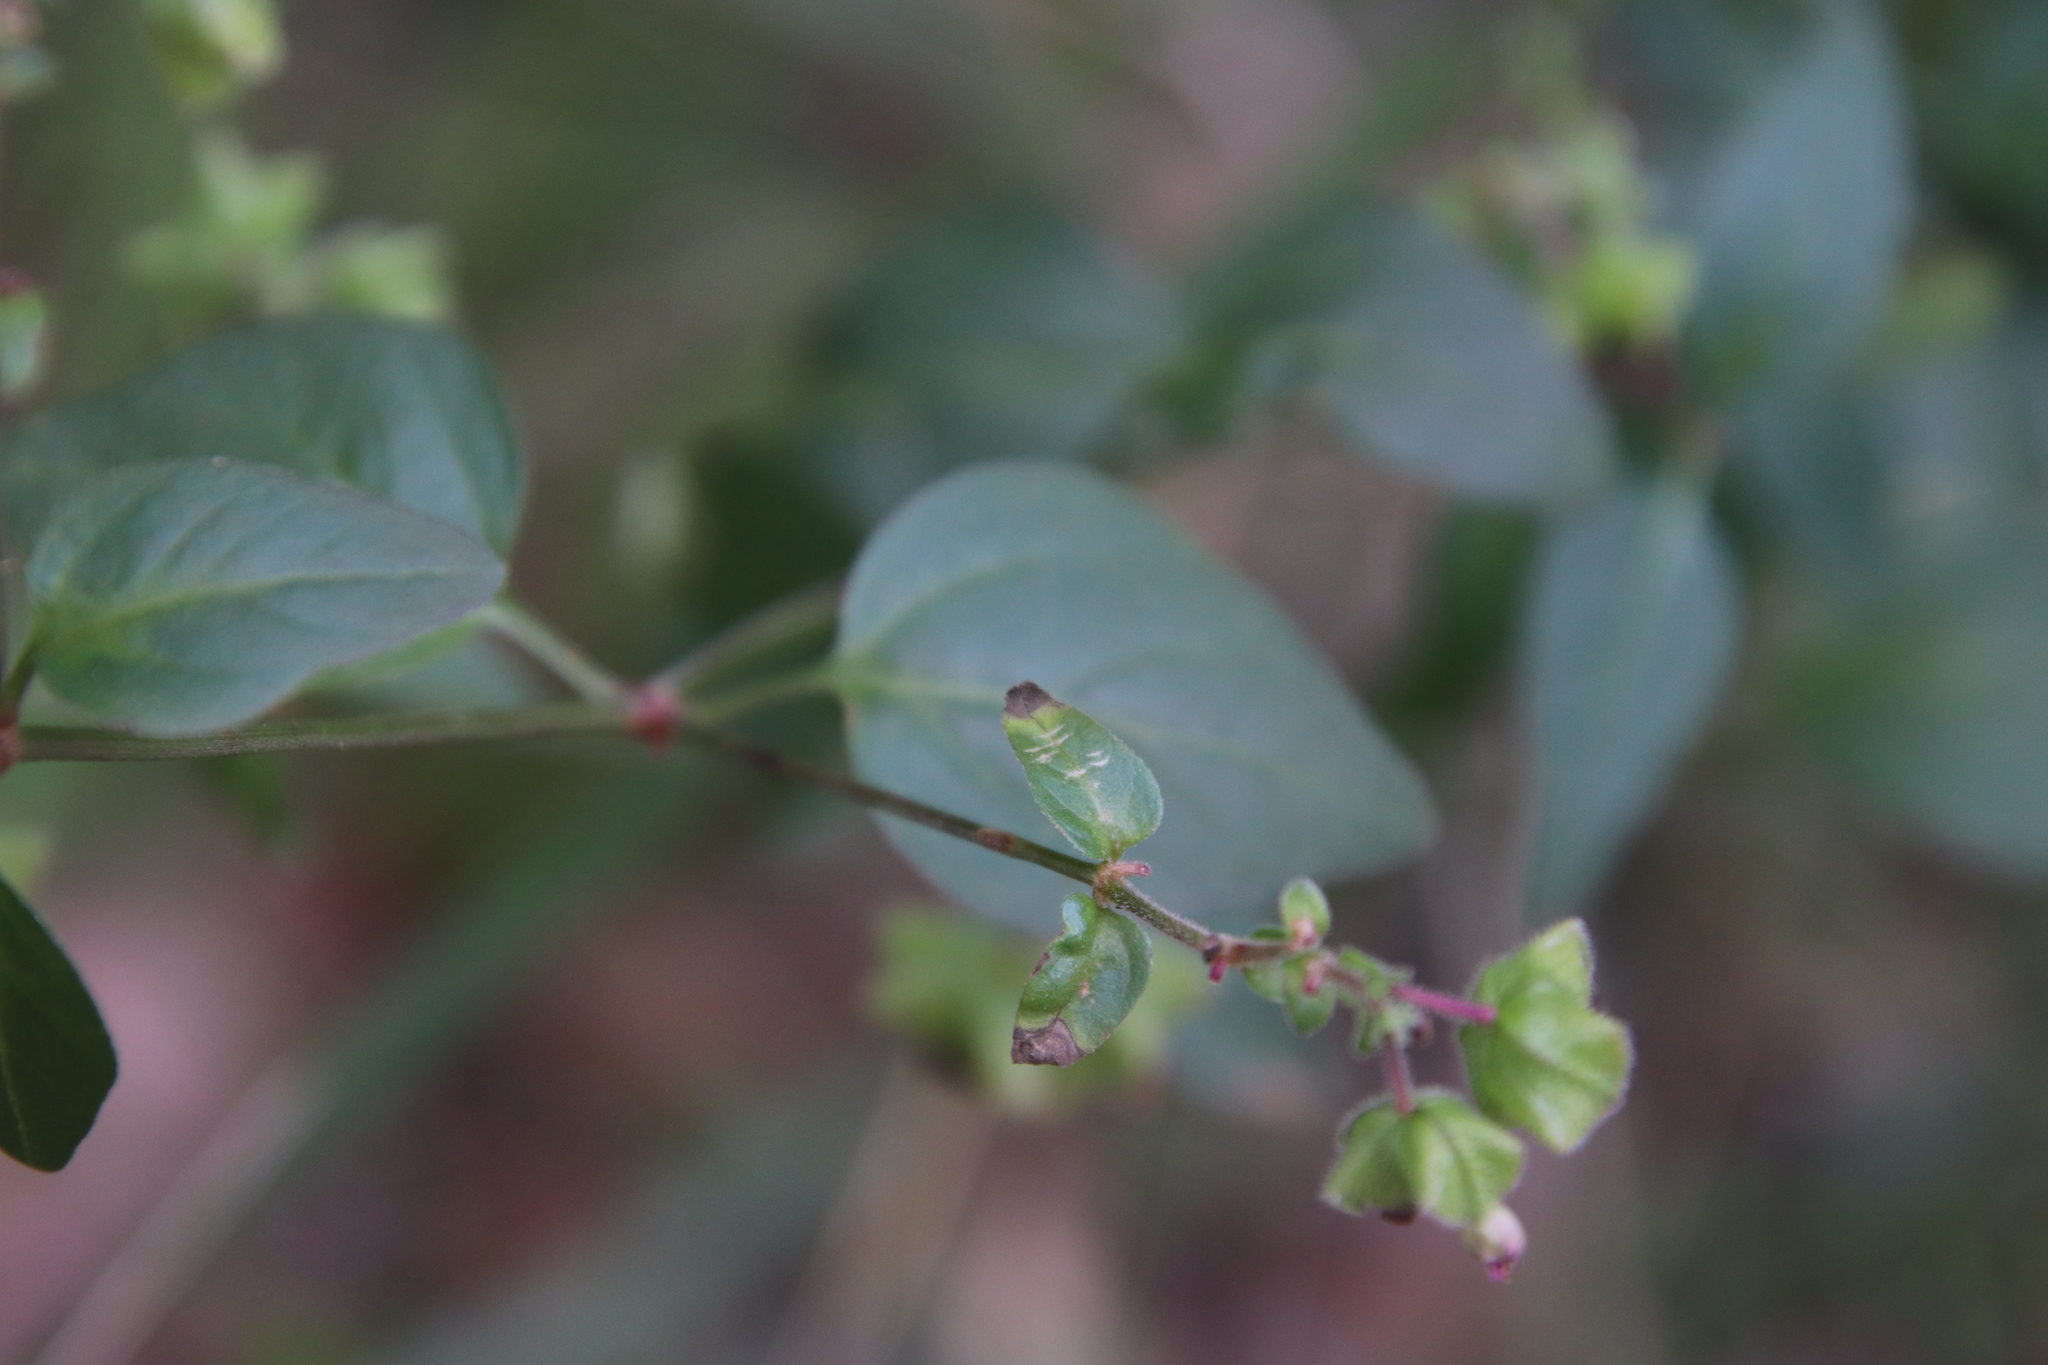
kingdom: Plantae
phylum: Tracheophyta
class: Magnoliopsida
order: Caryophyllales
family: Nyctaginaceae
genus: Mirabilis
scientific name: Mirabilis nyctaginea
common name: Umbrella wort
